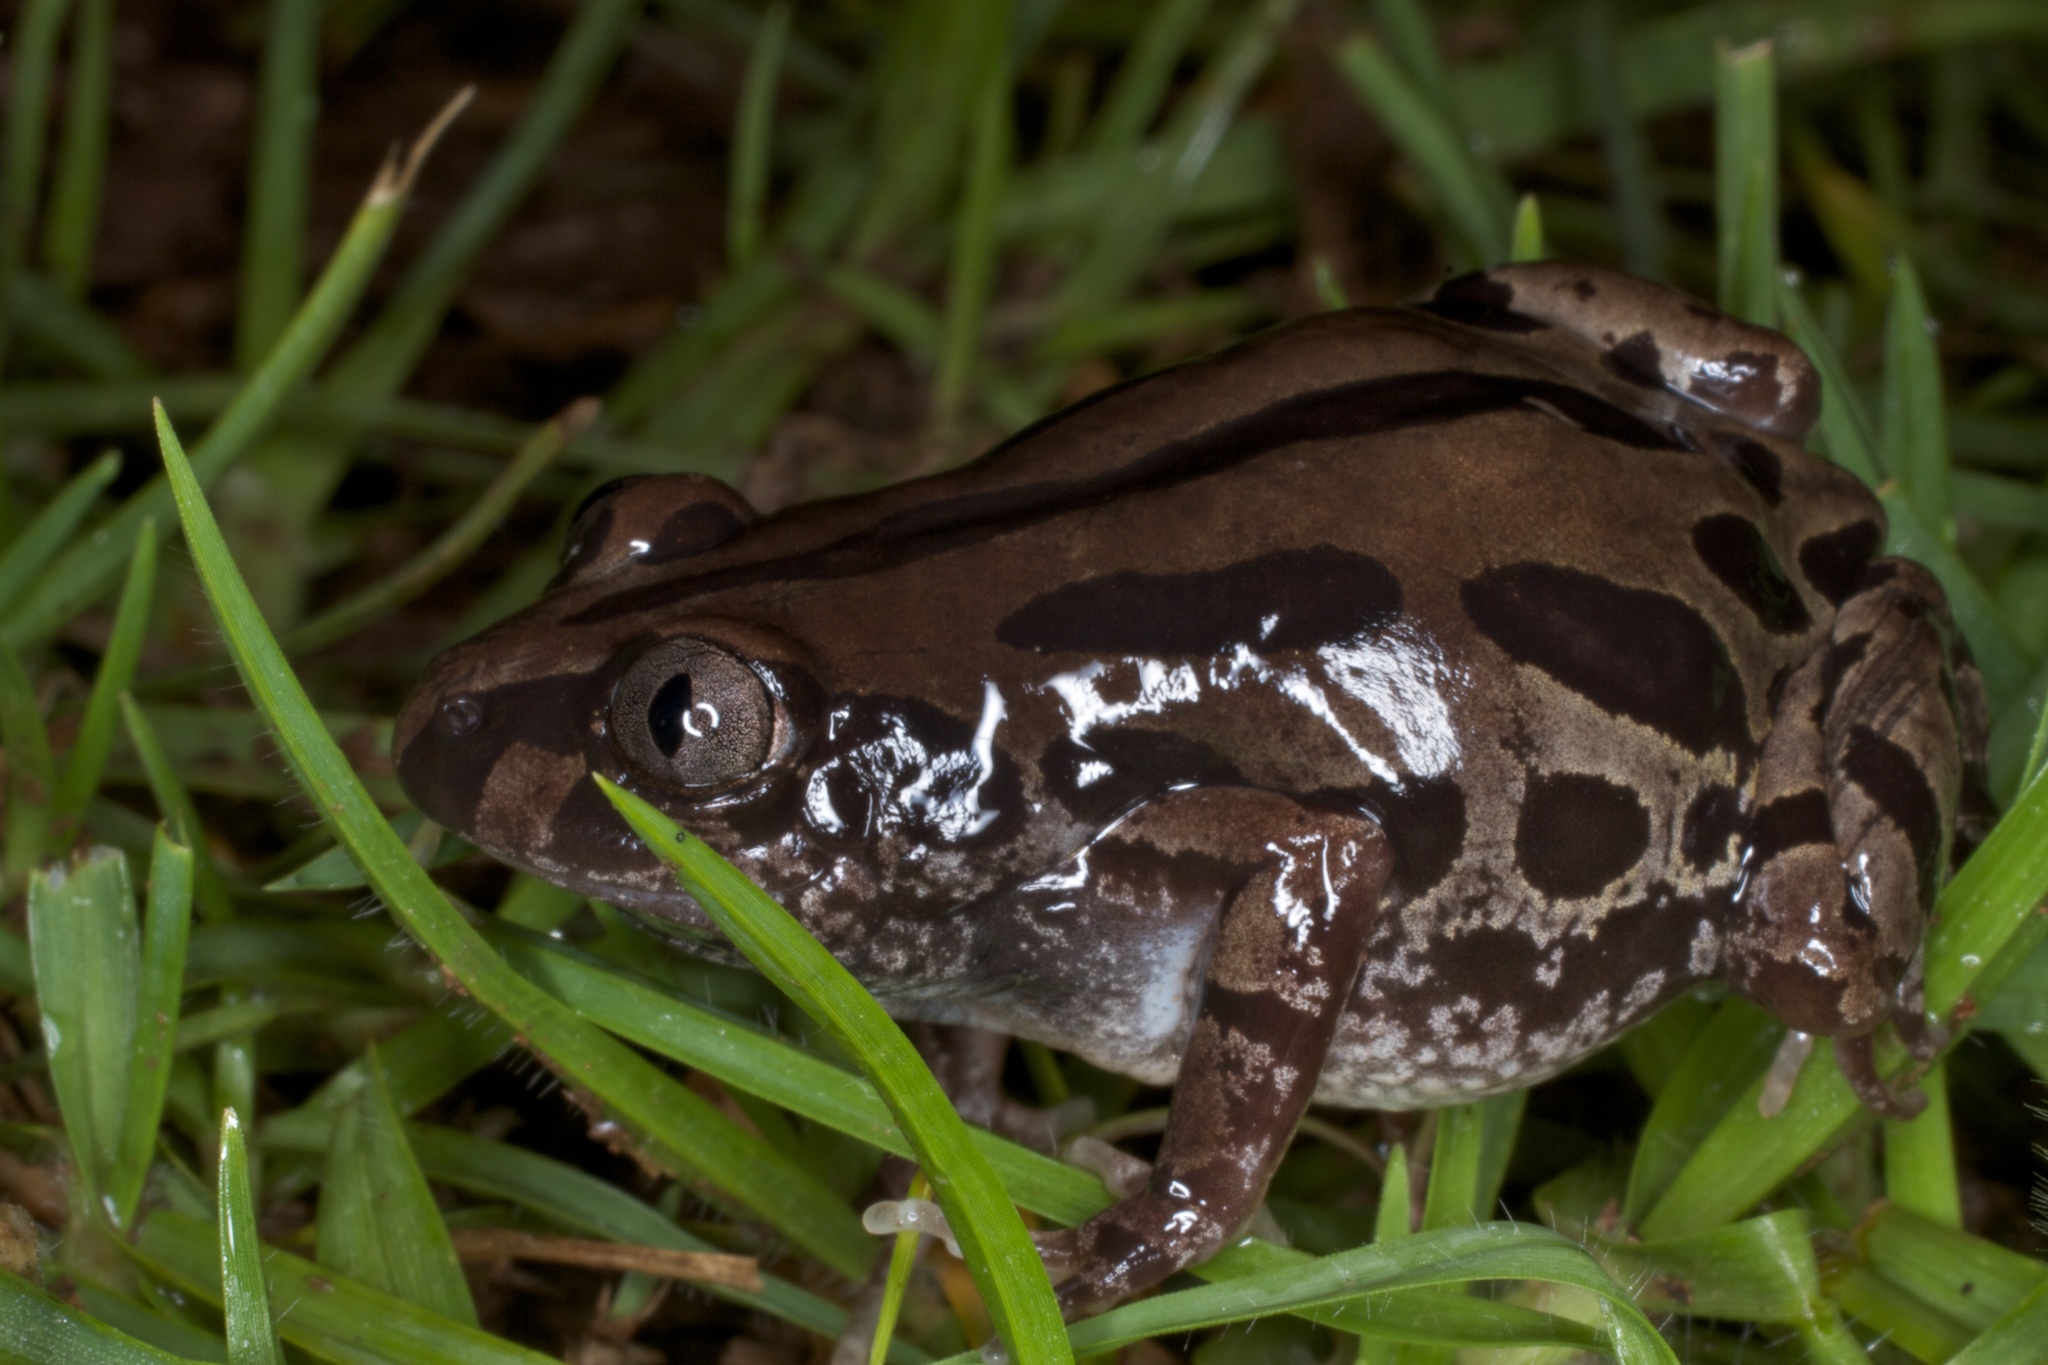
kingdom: Animalia
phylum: Chordata
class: Amphibia
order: Anura
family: Hyperoliidae
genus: Kassina
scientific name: Kassina senegalensis
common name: Senegal land frog
